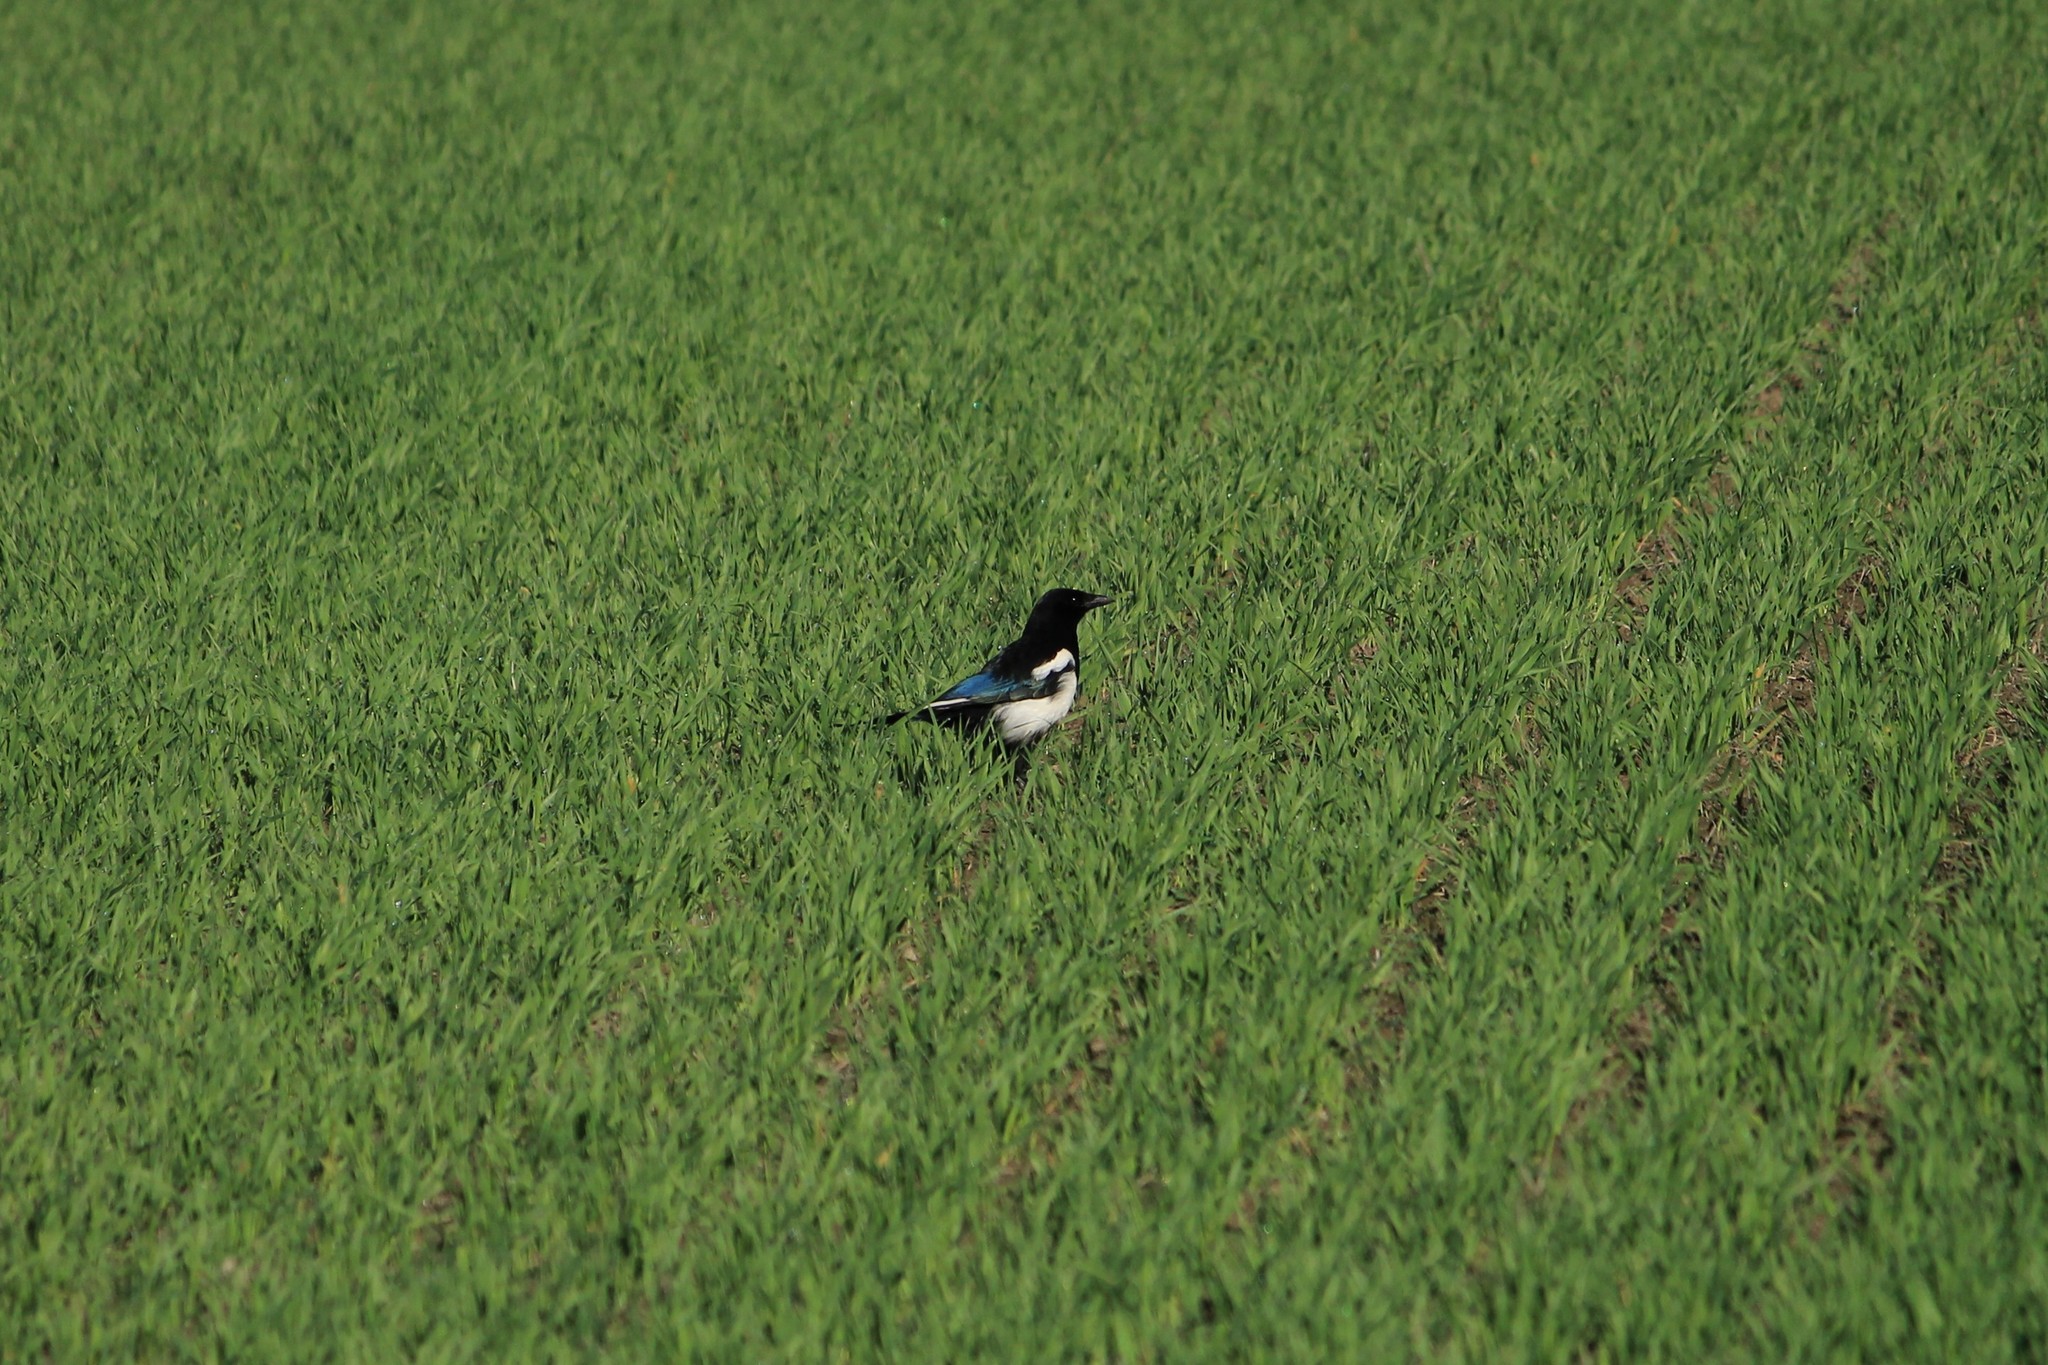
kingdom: Animalia
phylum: Chordata
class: Aves
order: Passeriformes
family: Corvidae
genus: Pica
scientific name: Pica pica
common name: Eurasian magpie
